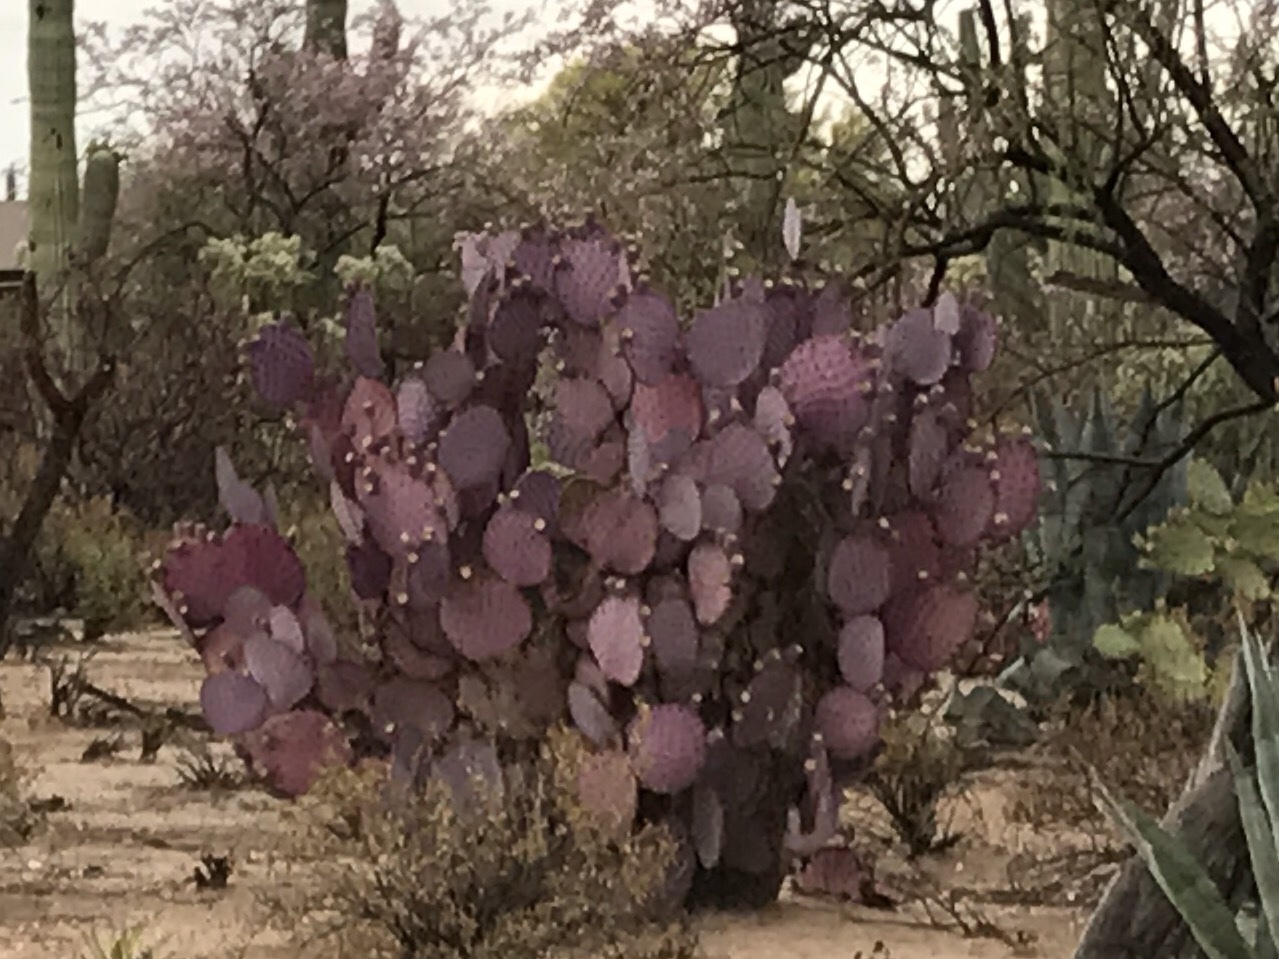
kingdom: Plantae
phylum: Tracheophyta
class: Magnoliopsida
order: Caryophyllales
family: Cactaceae
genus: Opuntia
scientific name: Opuntia gosseliniana
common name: Violet prickly-pear
